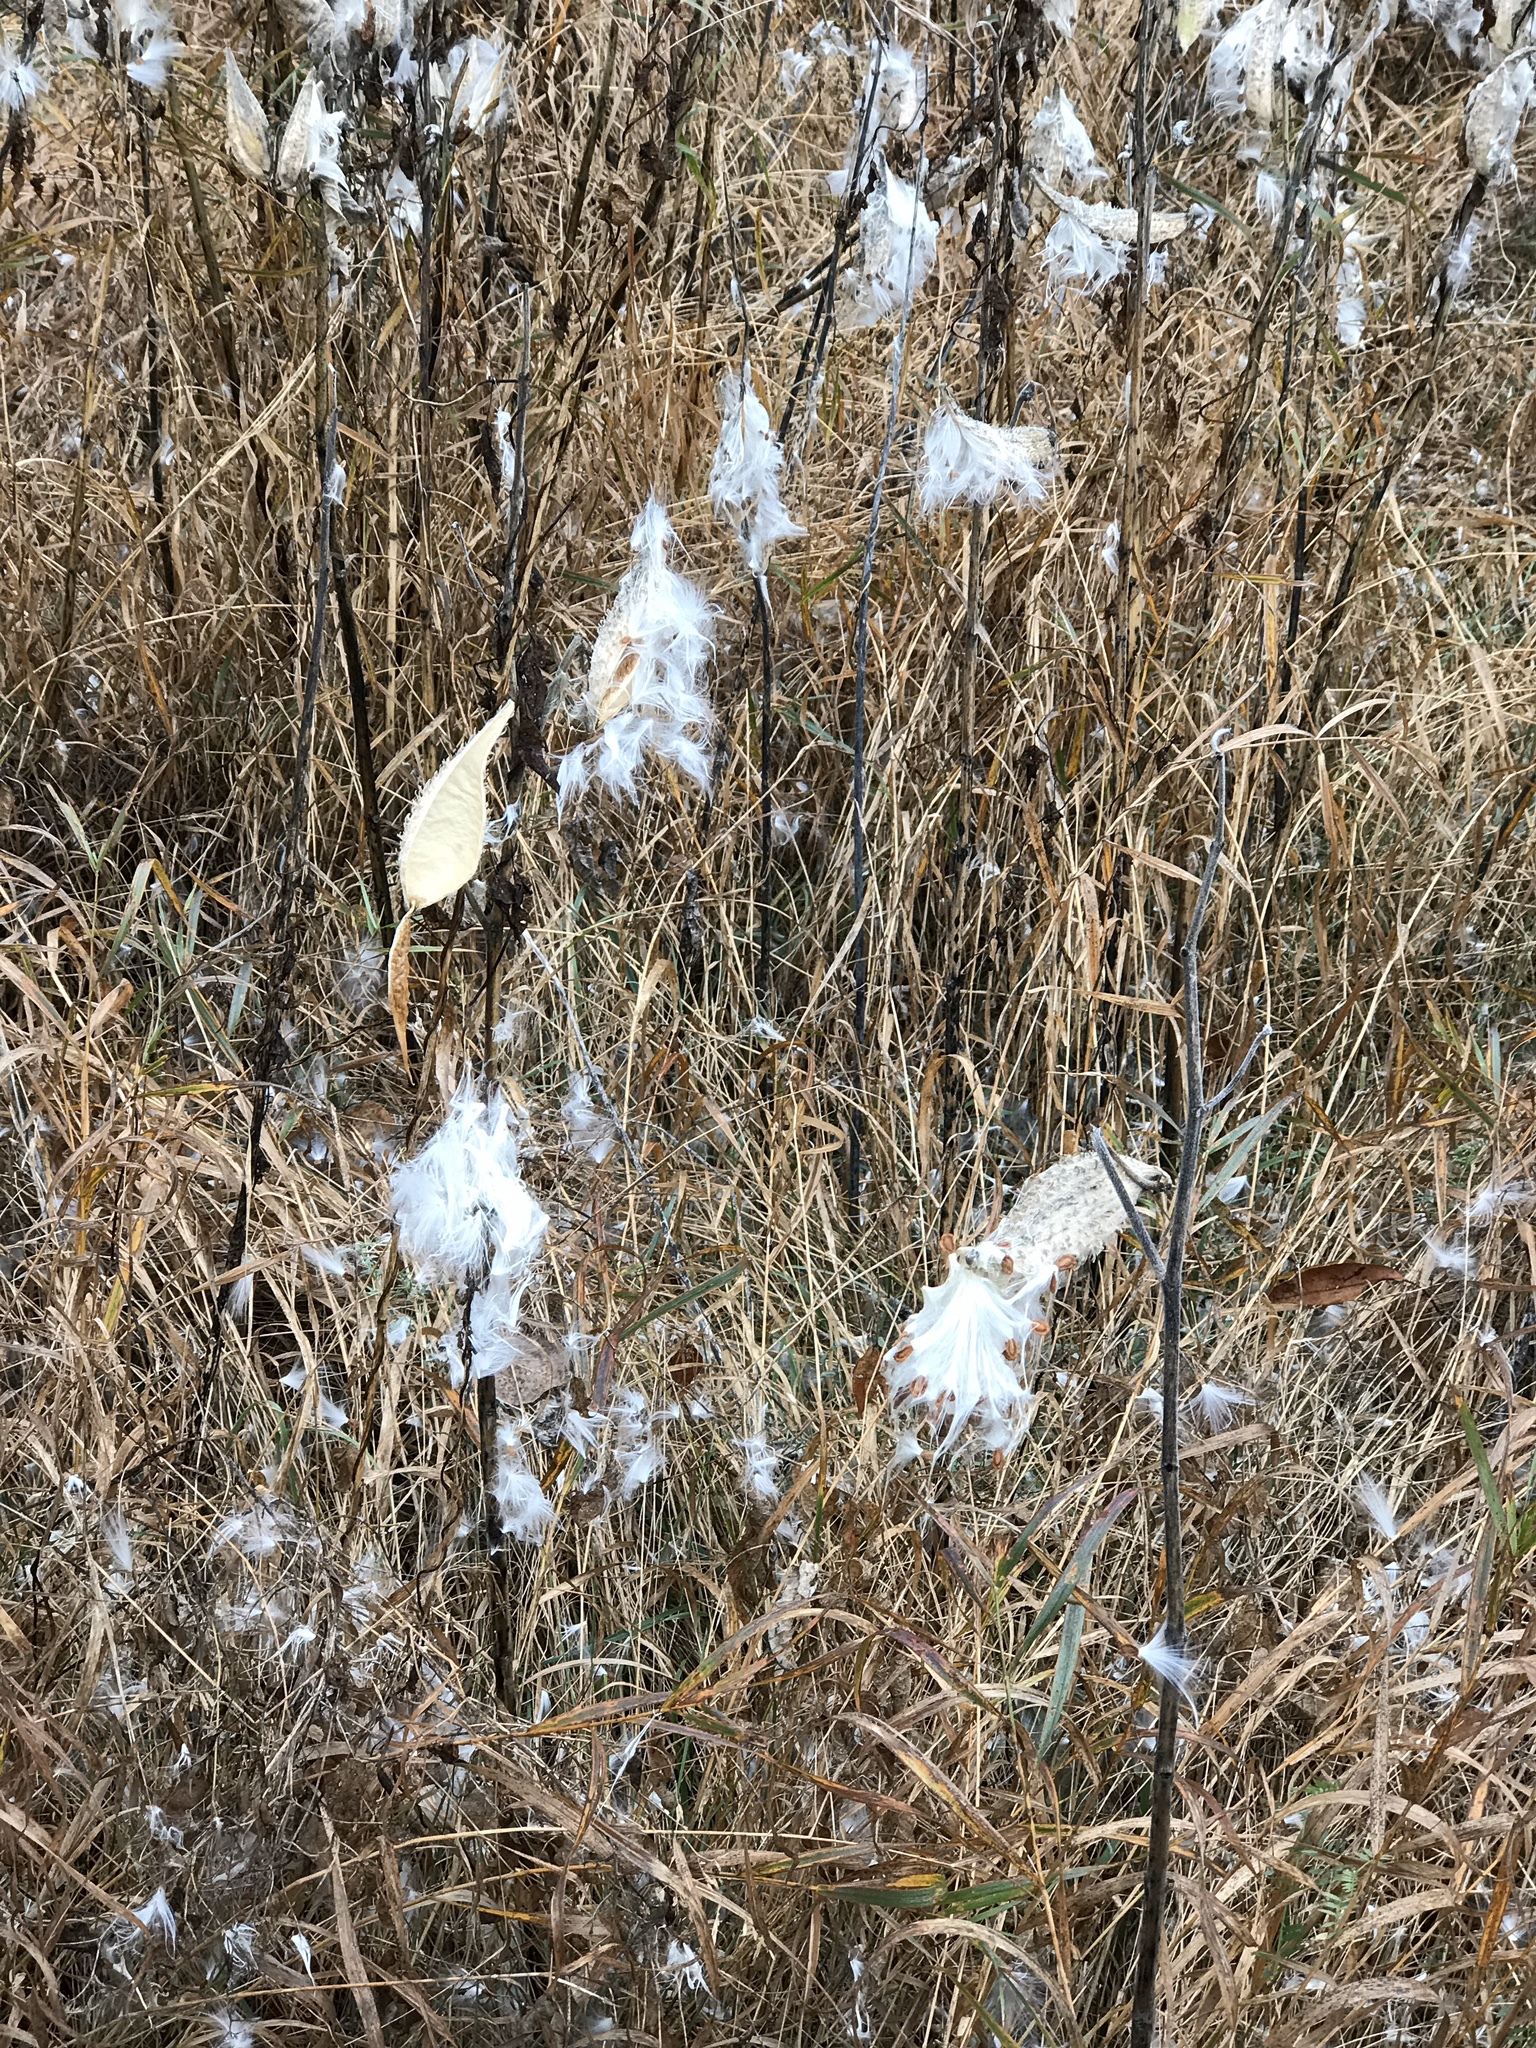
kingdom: Plantae
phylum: Tracheophyta
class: Magnoliopsida
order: Gentianales
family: Apocynaceae
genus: Asclepias
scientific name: Asclepias syriaca
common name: Common milkweed
